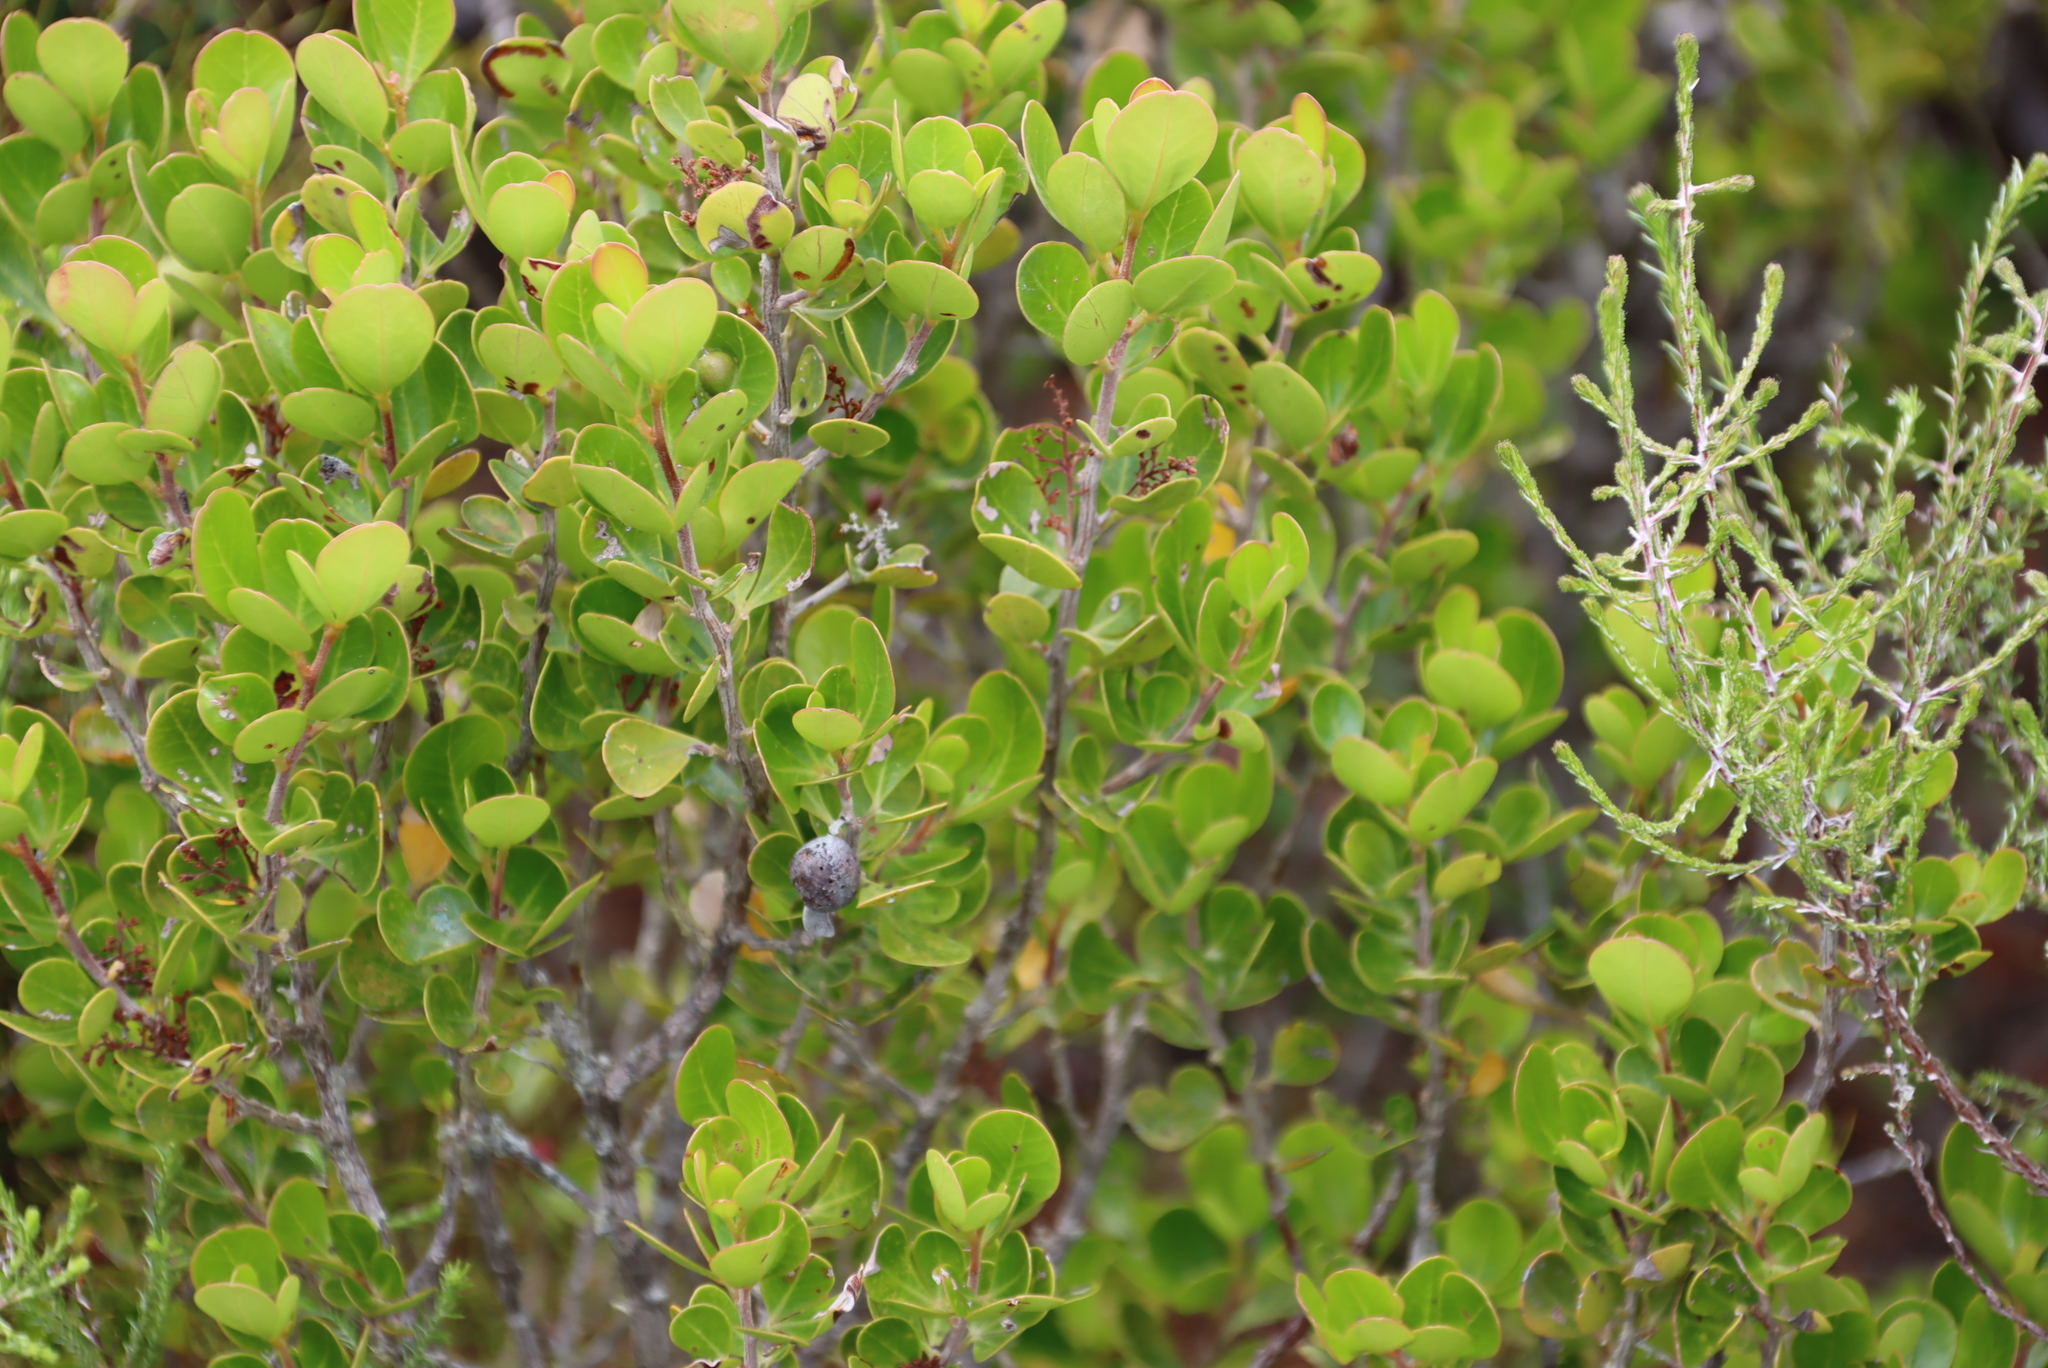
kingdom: Plantae
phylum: Tracheophyta
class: Magnoliopsida
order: Sapindales
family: Anacardiaceae
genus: Searsia
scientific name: Searsia lucida
